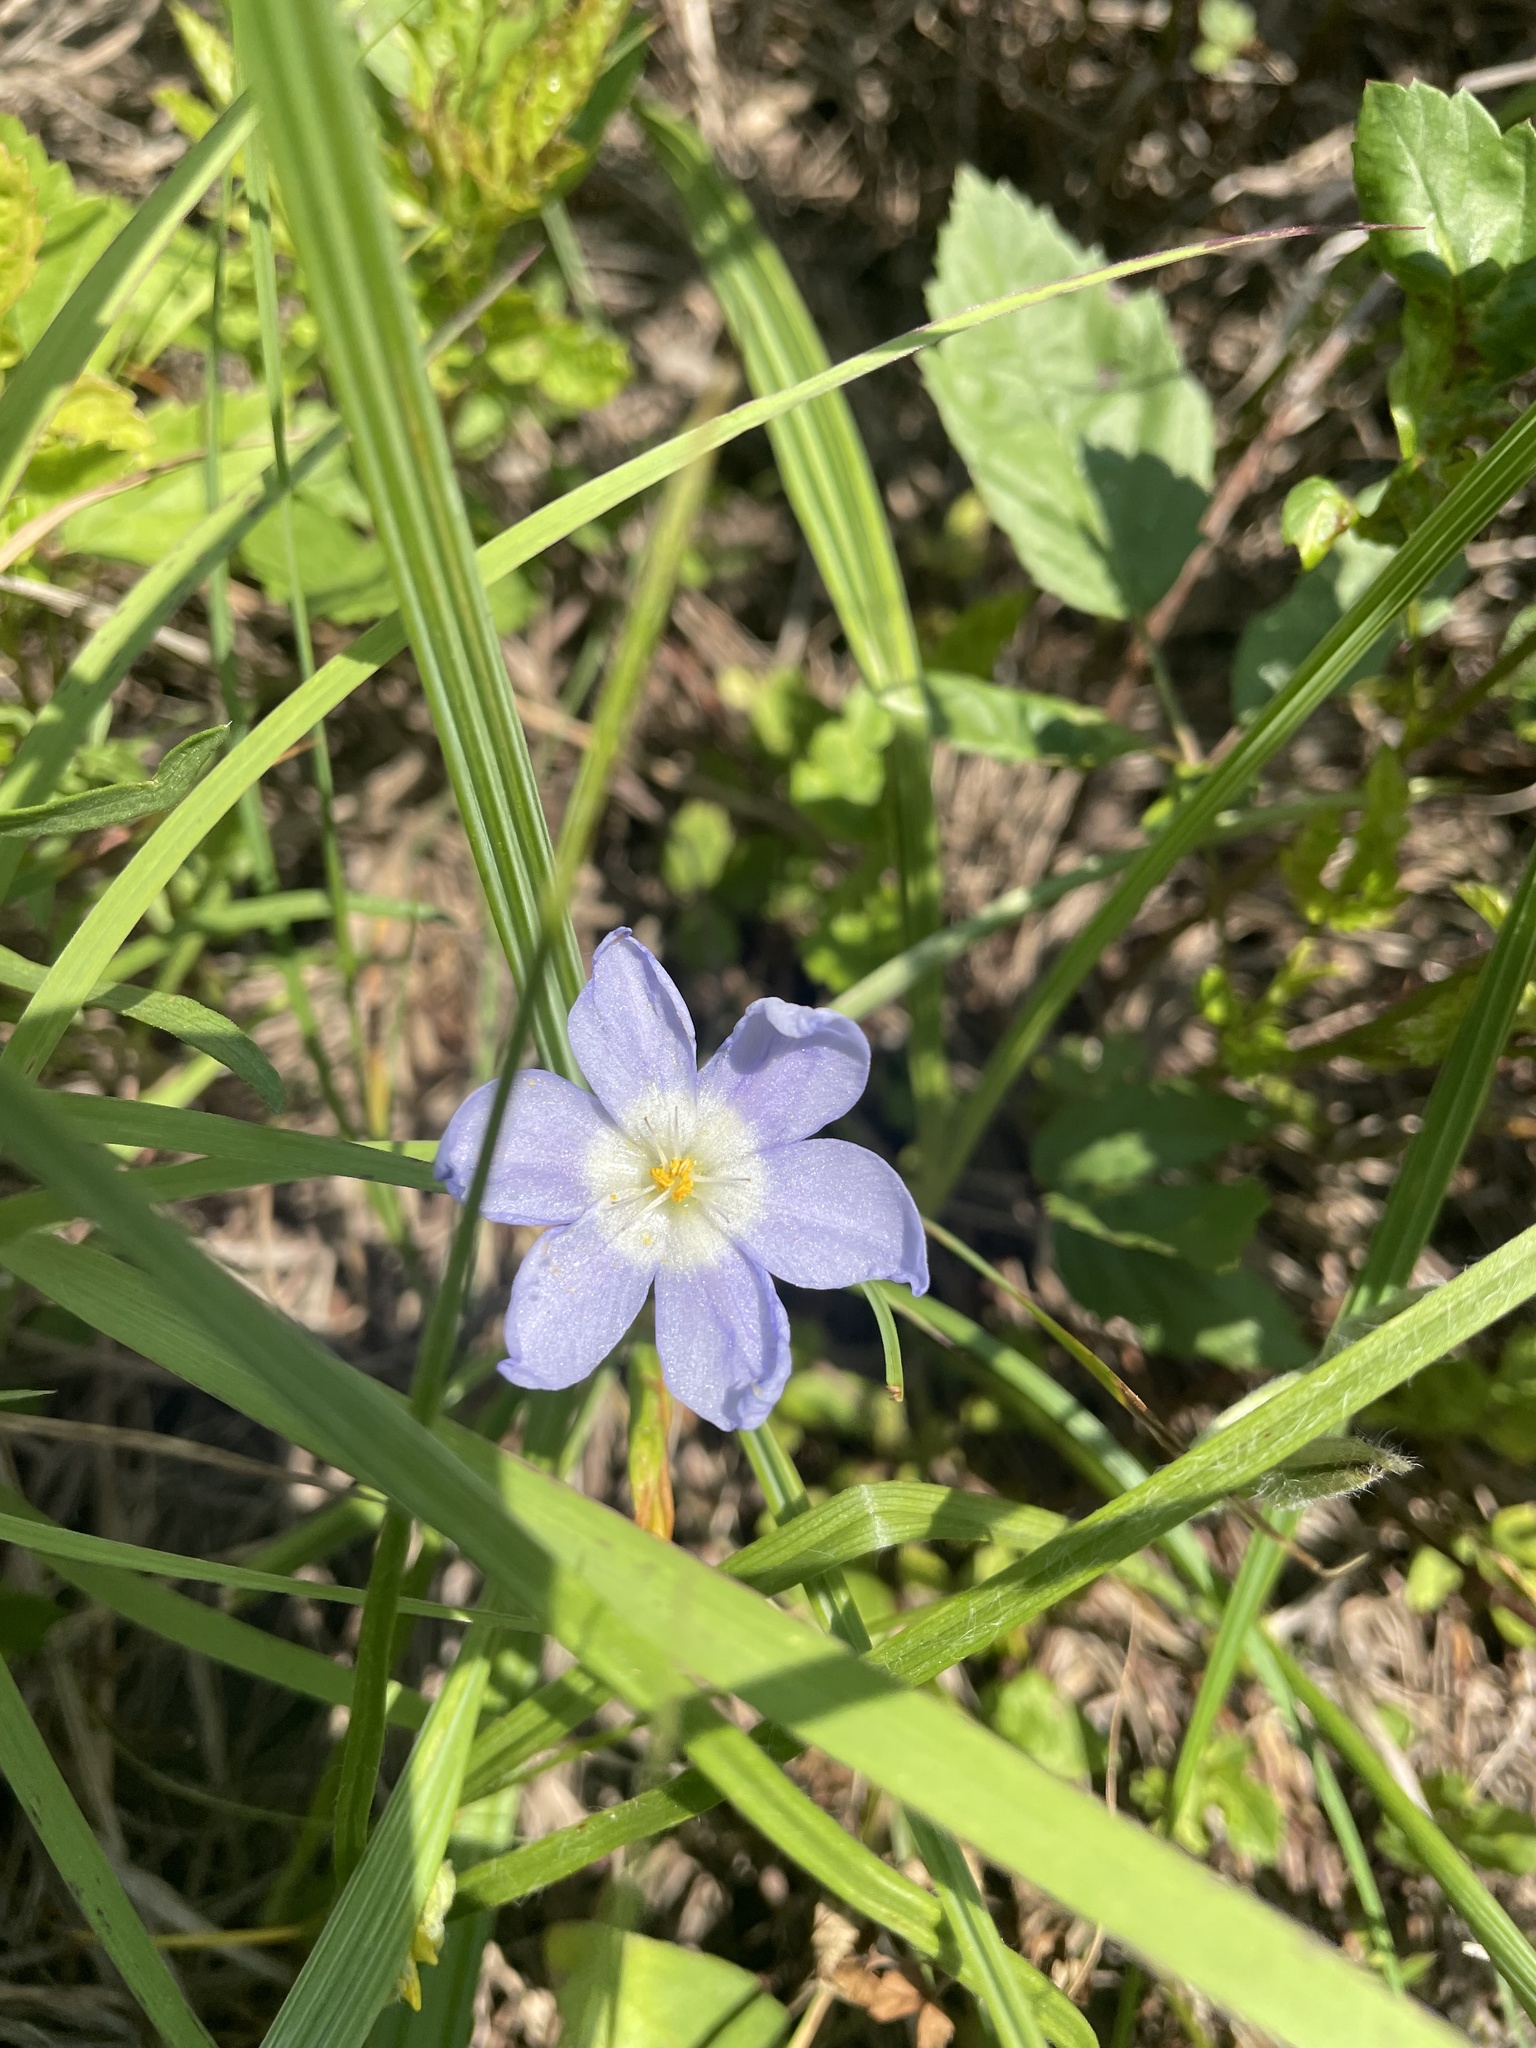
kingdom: Plantae
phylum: Tracheophyta
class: Liliopsida
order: Asparagales
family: Iridaceae
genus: Nemastylis
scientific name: Nemastylis geminiflora
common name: Prairie celestial
